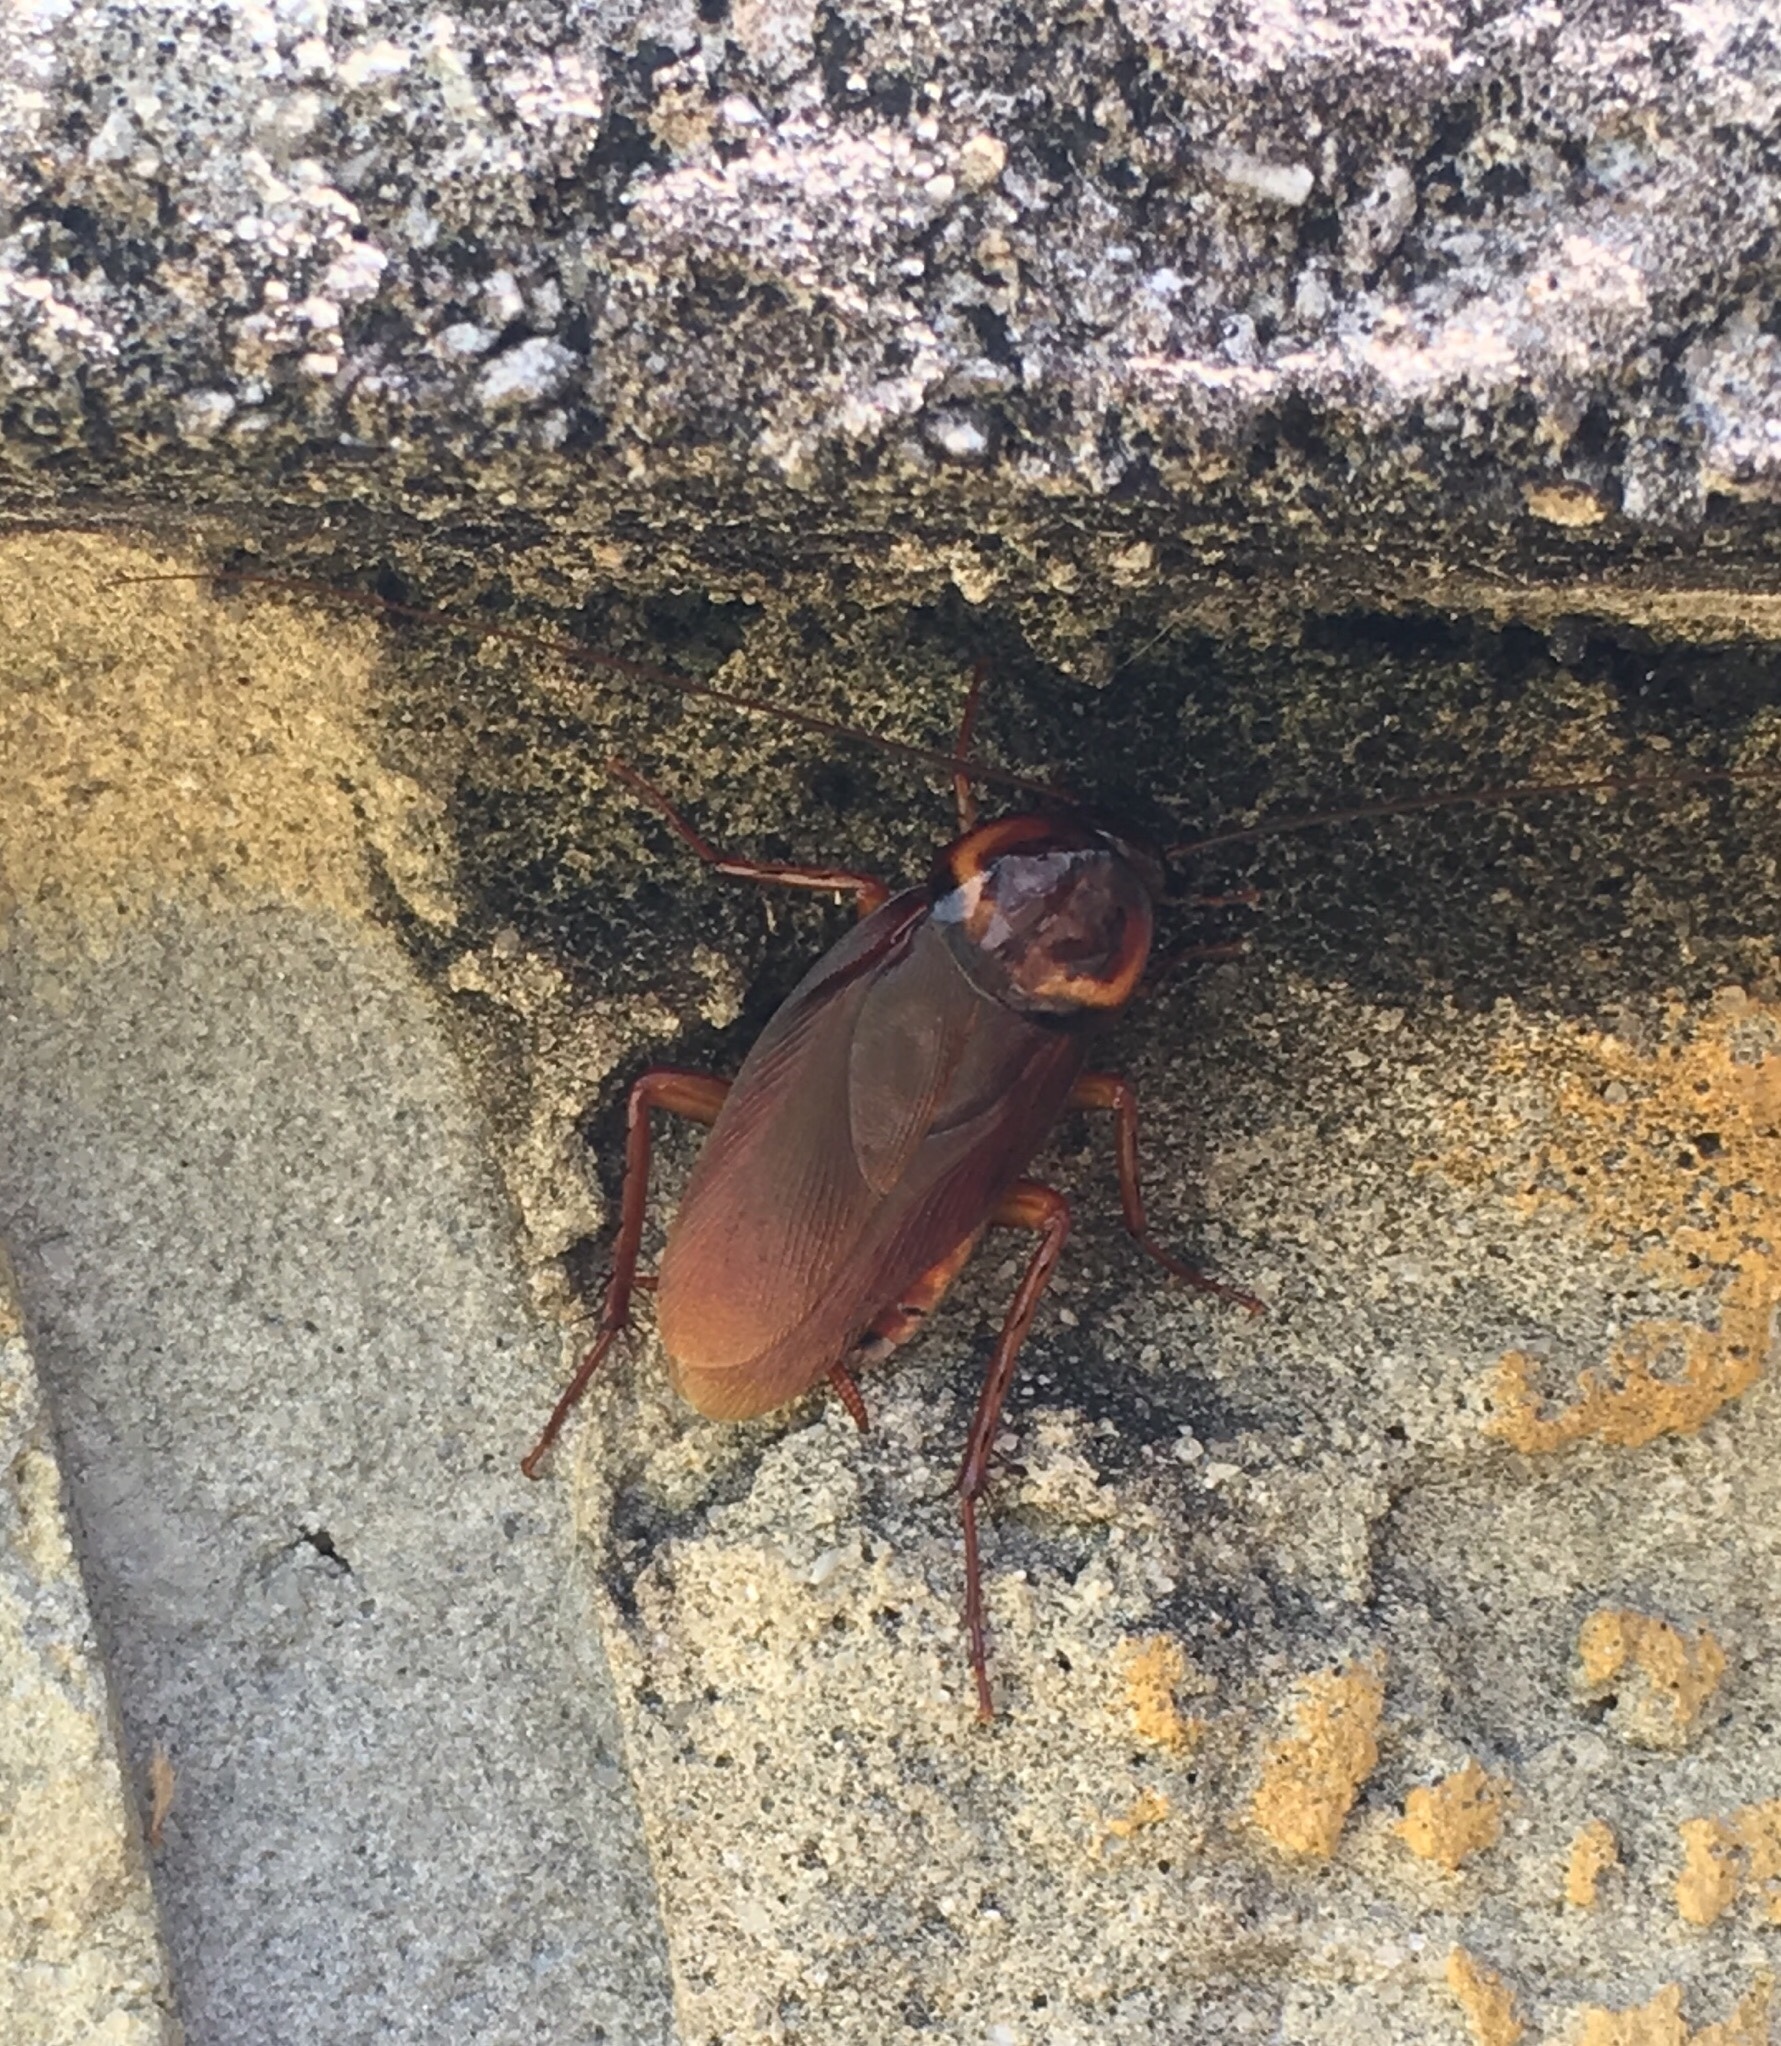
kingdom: Animalia
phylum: Arthropoda
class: Insecta
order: Blattodea
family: Blattidae
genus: Periplaneta
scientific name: Periplaneta americana
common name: American cockroach
